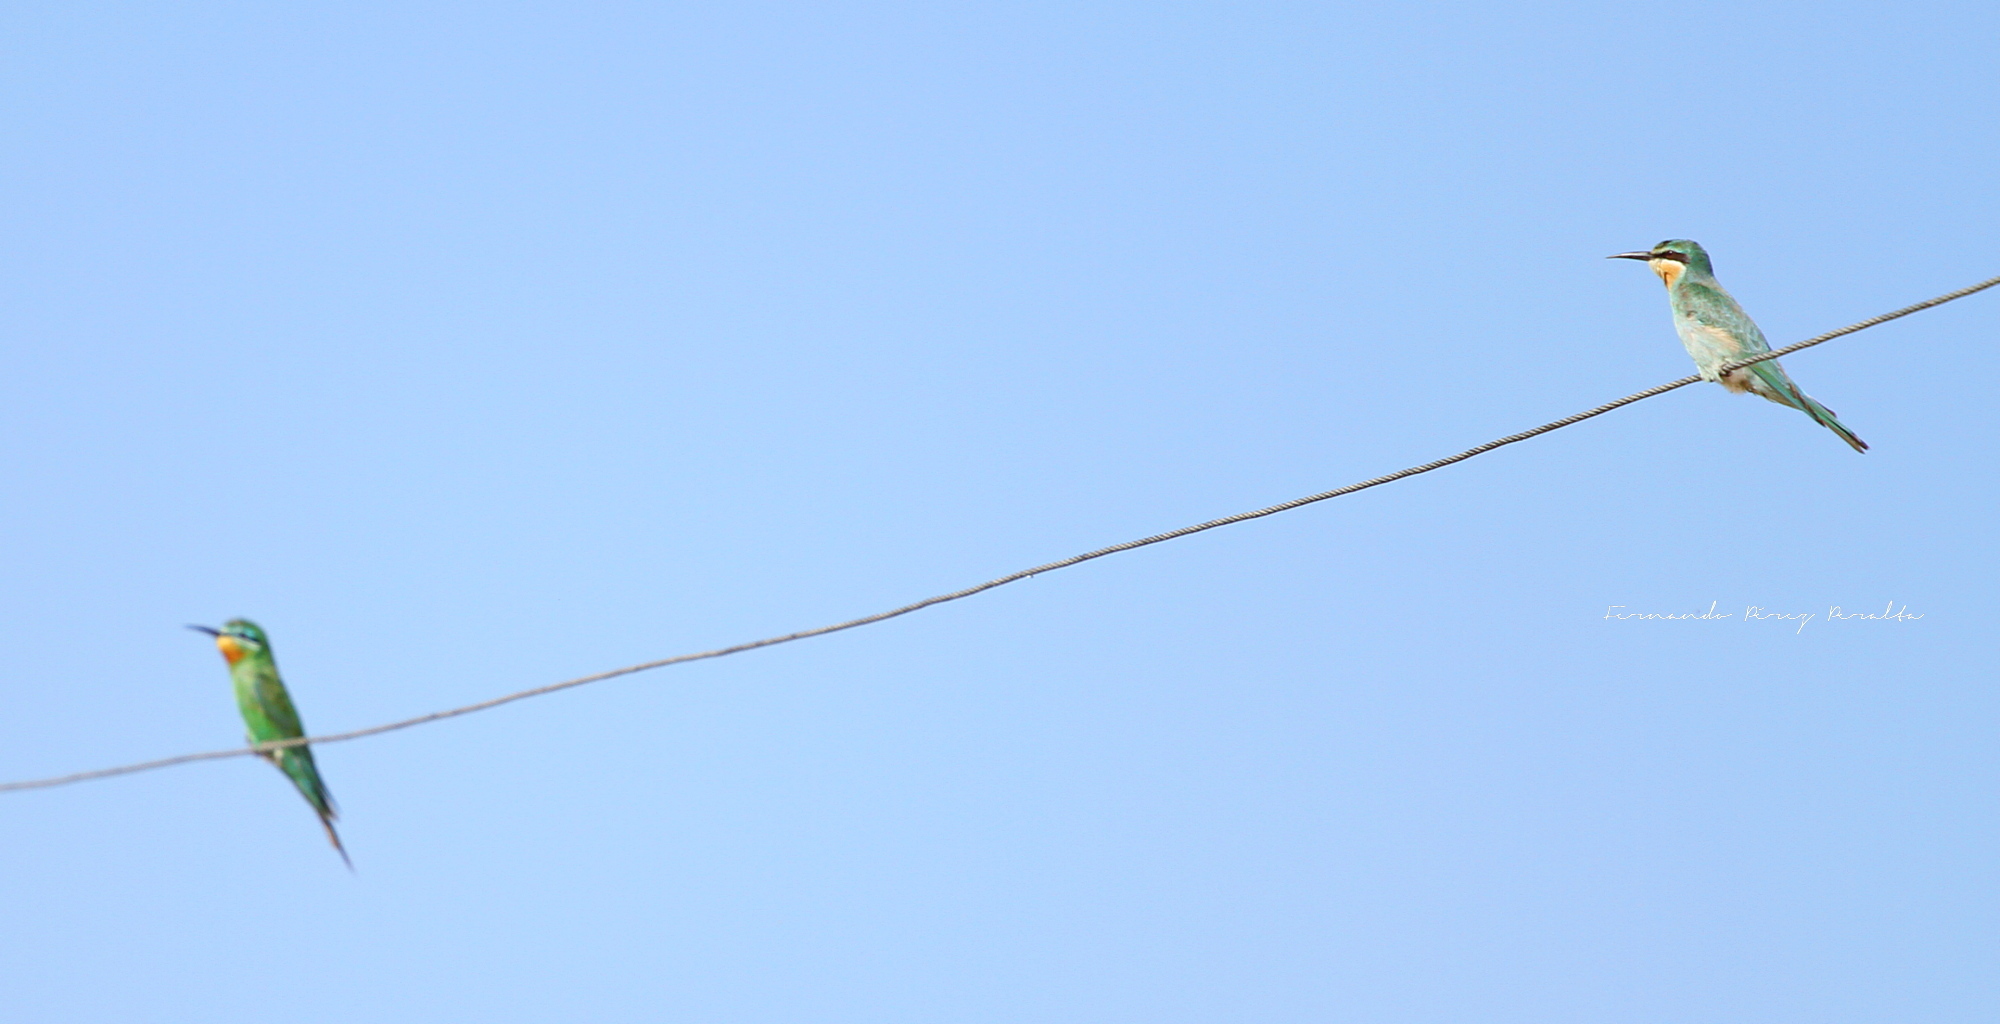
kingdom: Animalia
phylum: Chordata
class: Aves
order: Coraciiformes
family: Meropidae
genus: Merops
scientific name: Merops persicus
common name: Blue-cheeked bee-eater
